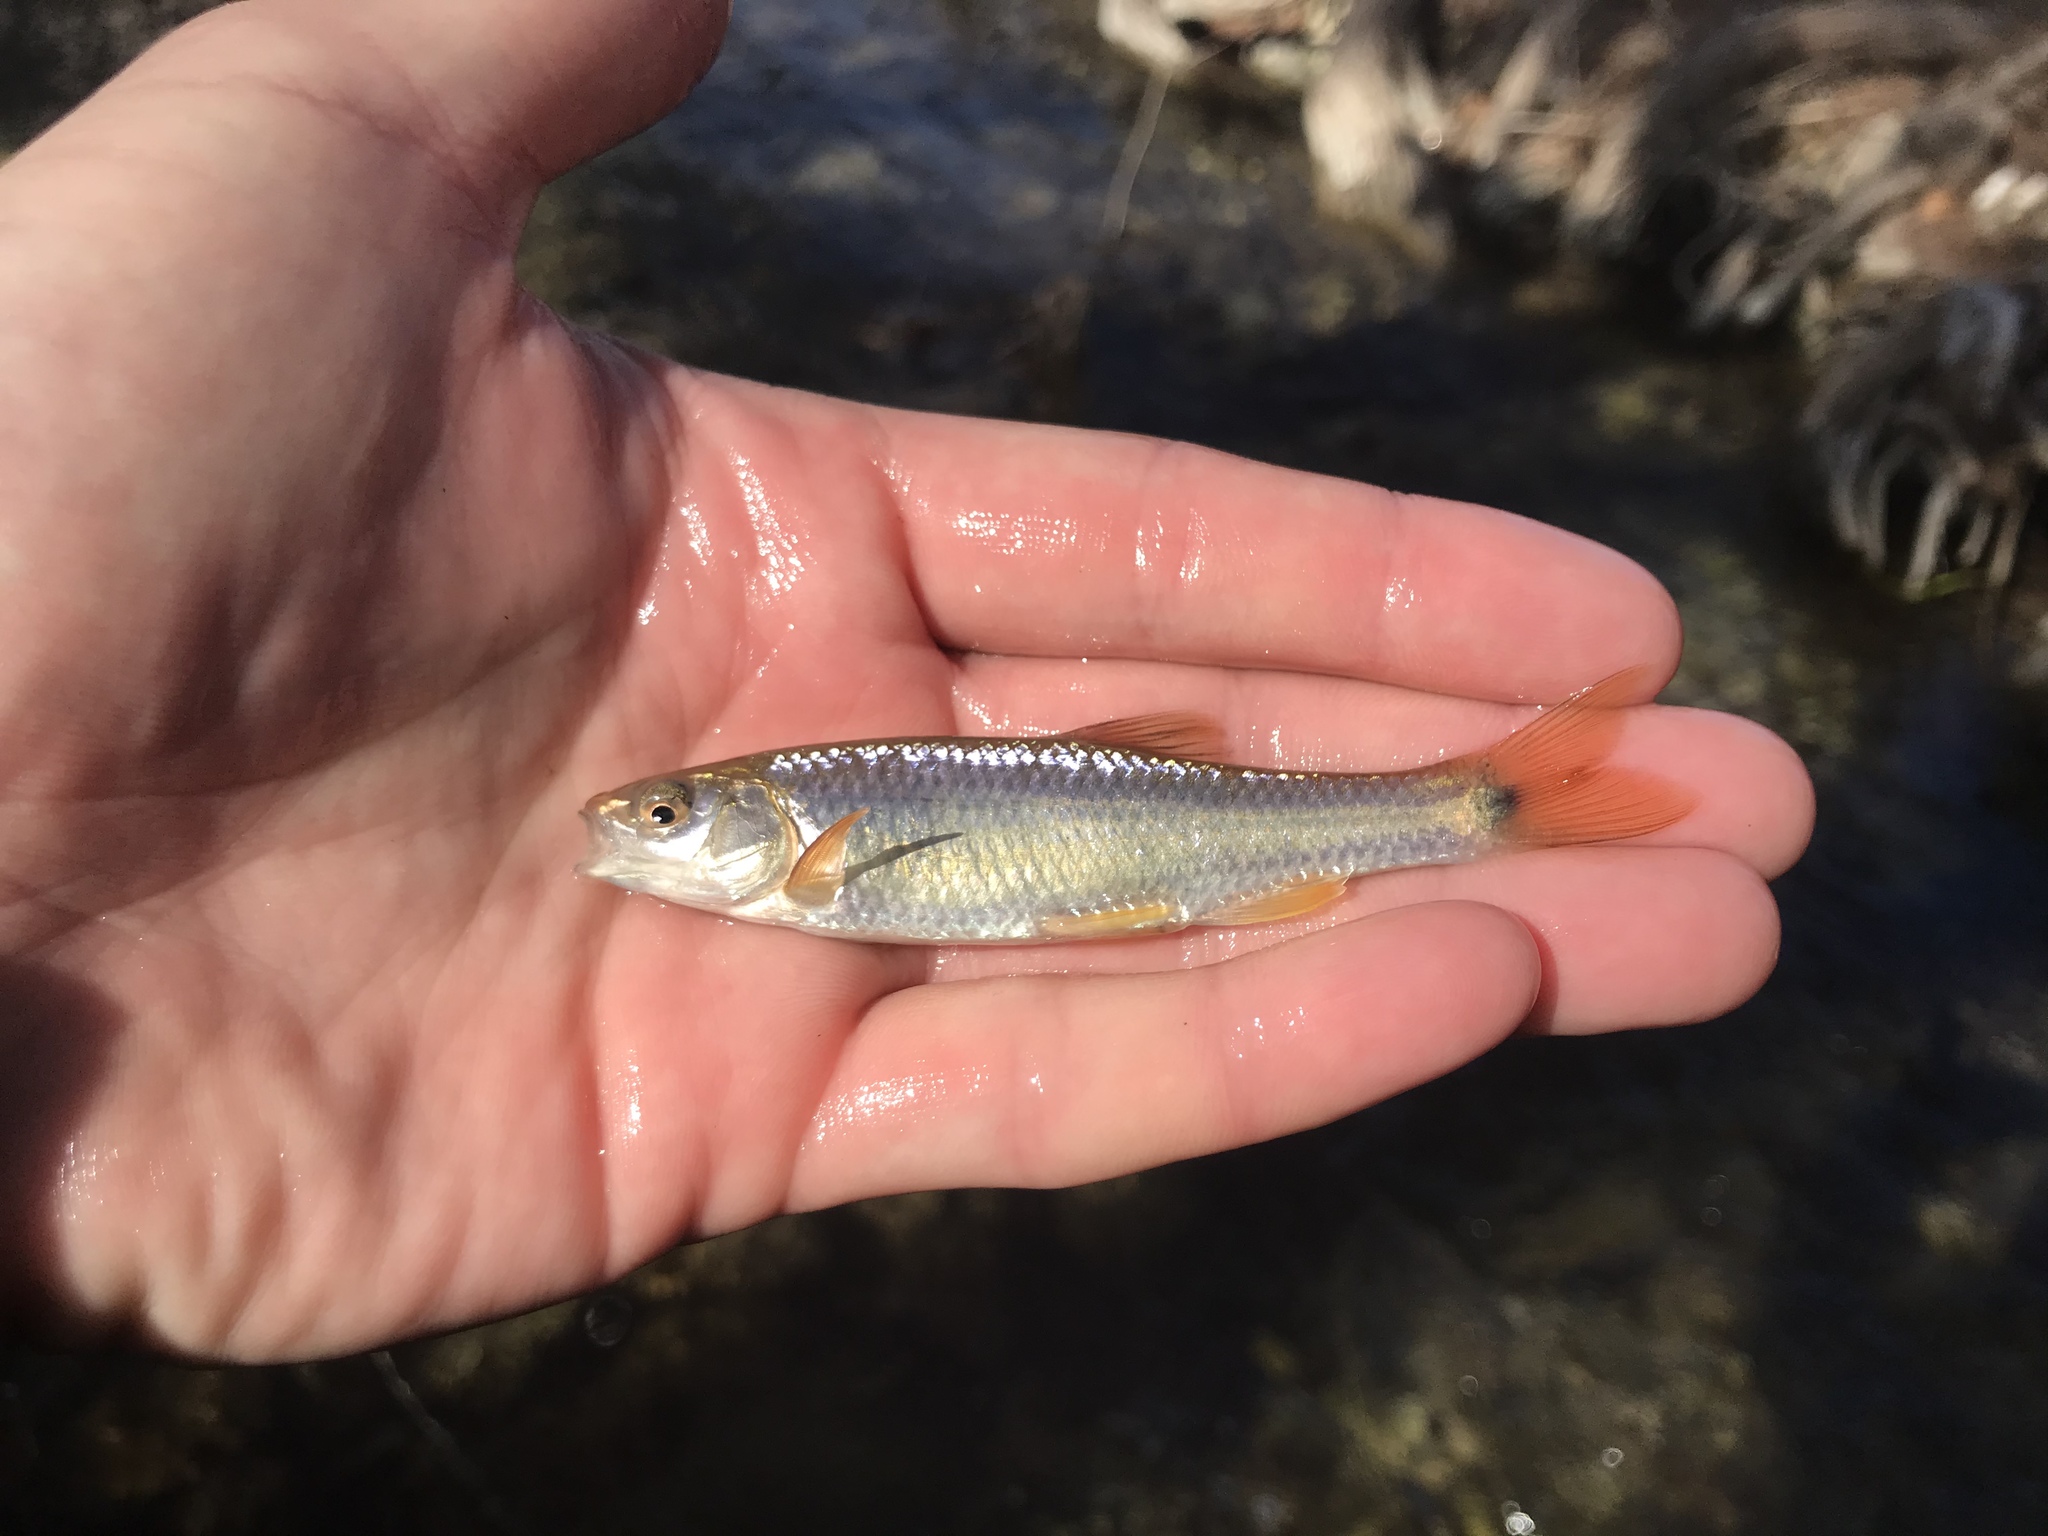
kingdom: Animalia
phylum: Chordata
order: Cypriniformes
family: Cyprinidae
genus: Cyprinella
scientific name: Cyprinella venusta
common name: Blacktail shiner
